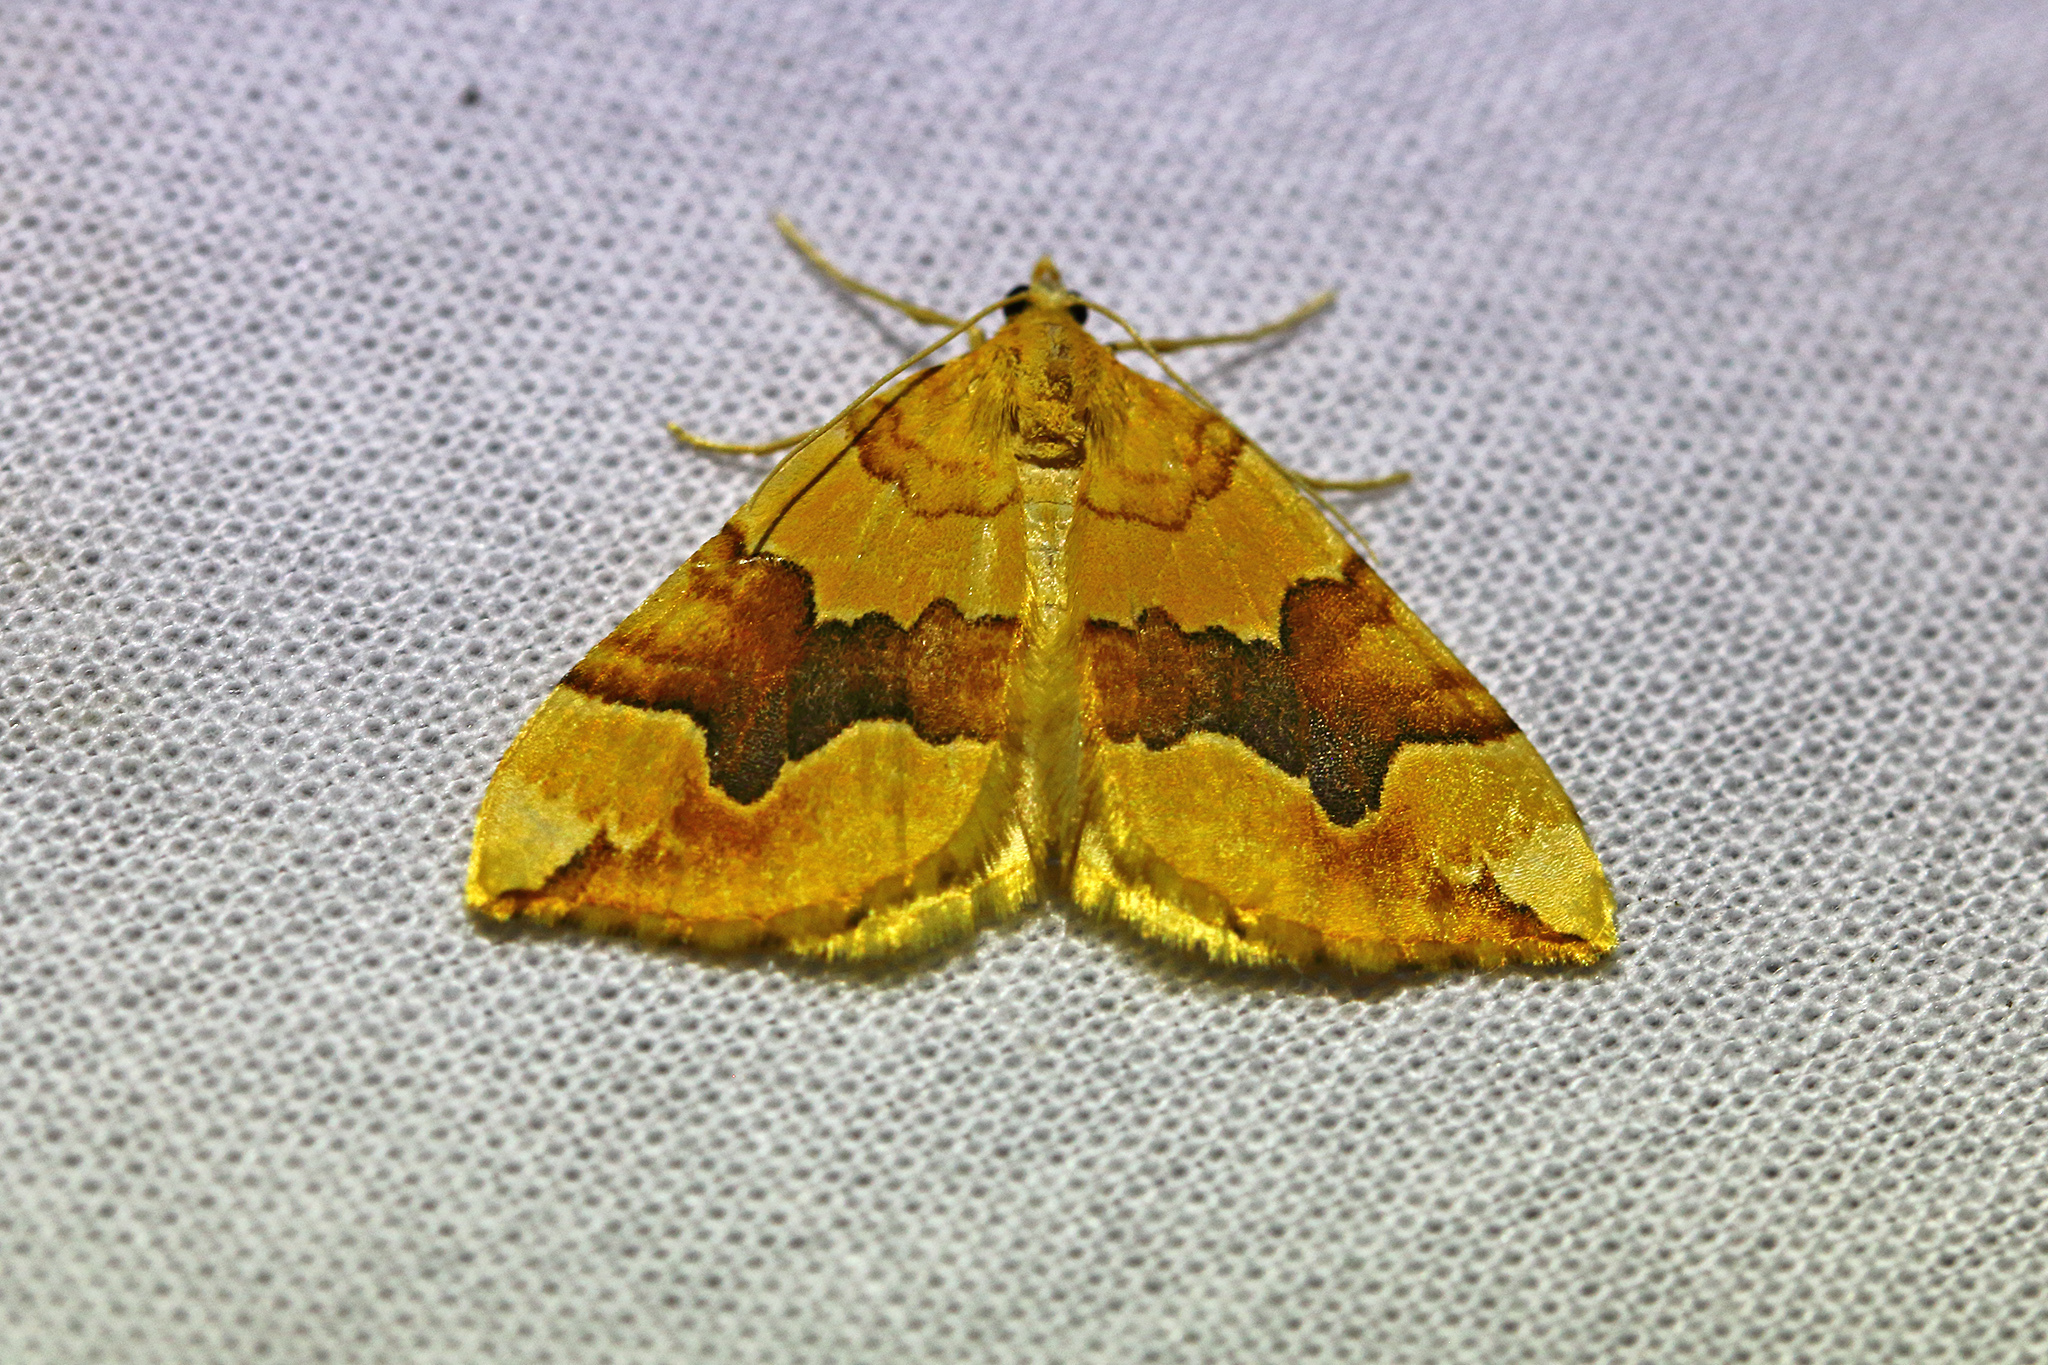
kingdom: Animalia
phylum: Arthropoda
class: Insecta
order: Lepidoptera
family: Geometridae
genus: Cidaria
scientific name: Cidaria fulvata
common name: Barred yellow
